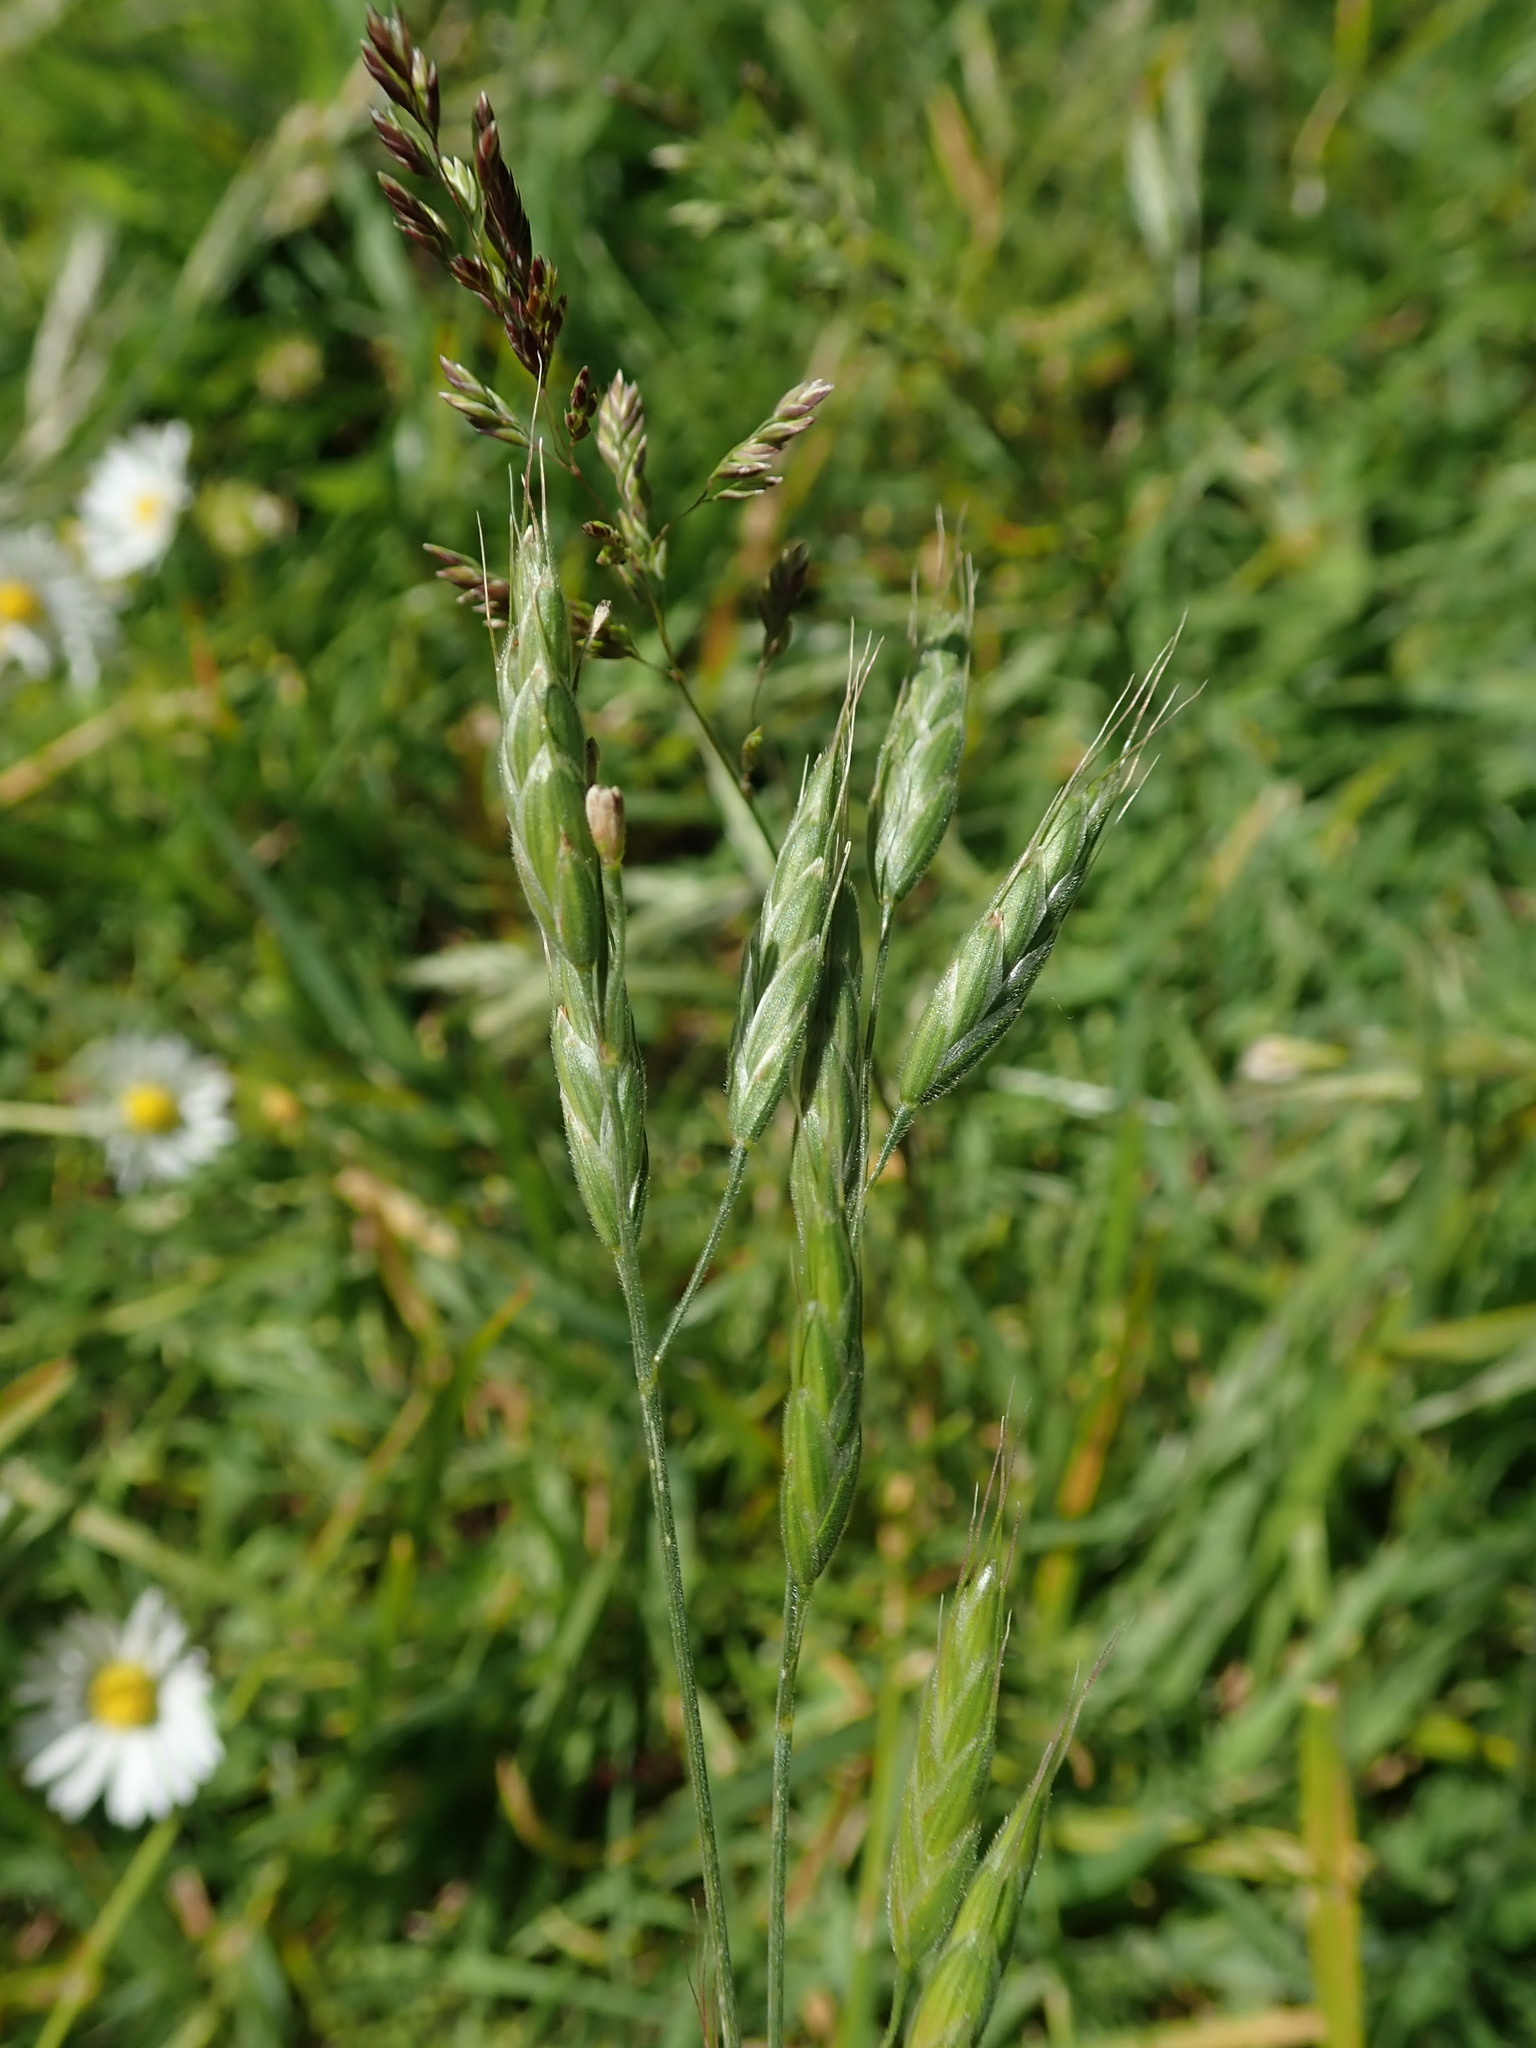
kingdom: Plantae
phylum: Tracheophyta
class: Liliopsida
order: Poales
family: Poaceae
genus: Bromus
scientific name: Bromus hordeaceus
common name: Soft brome
